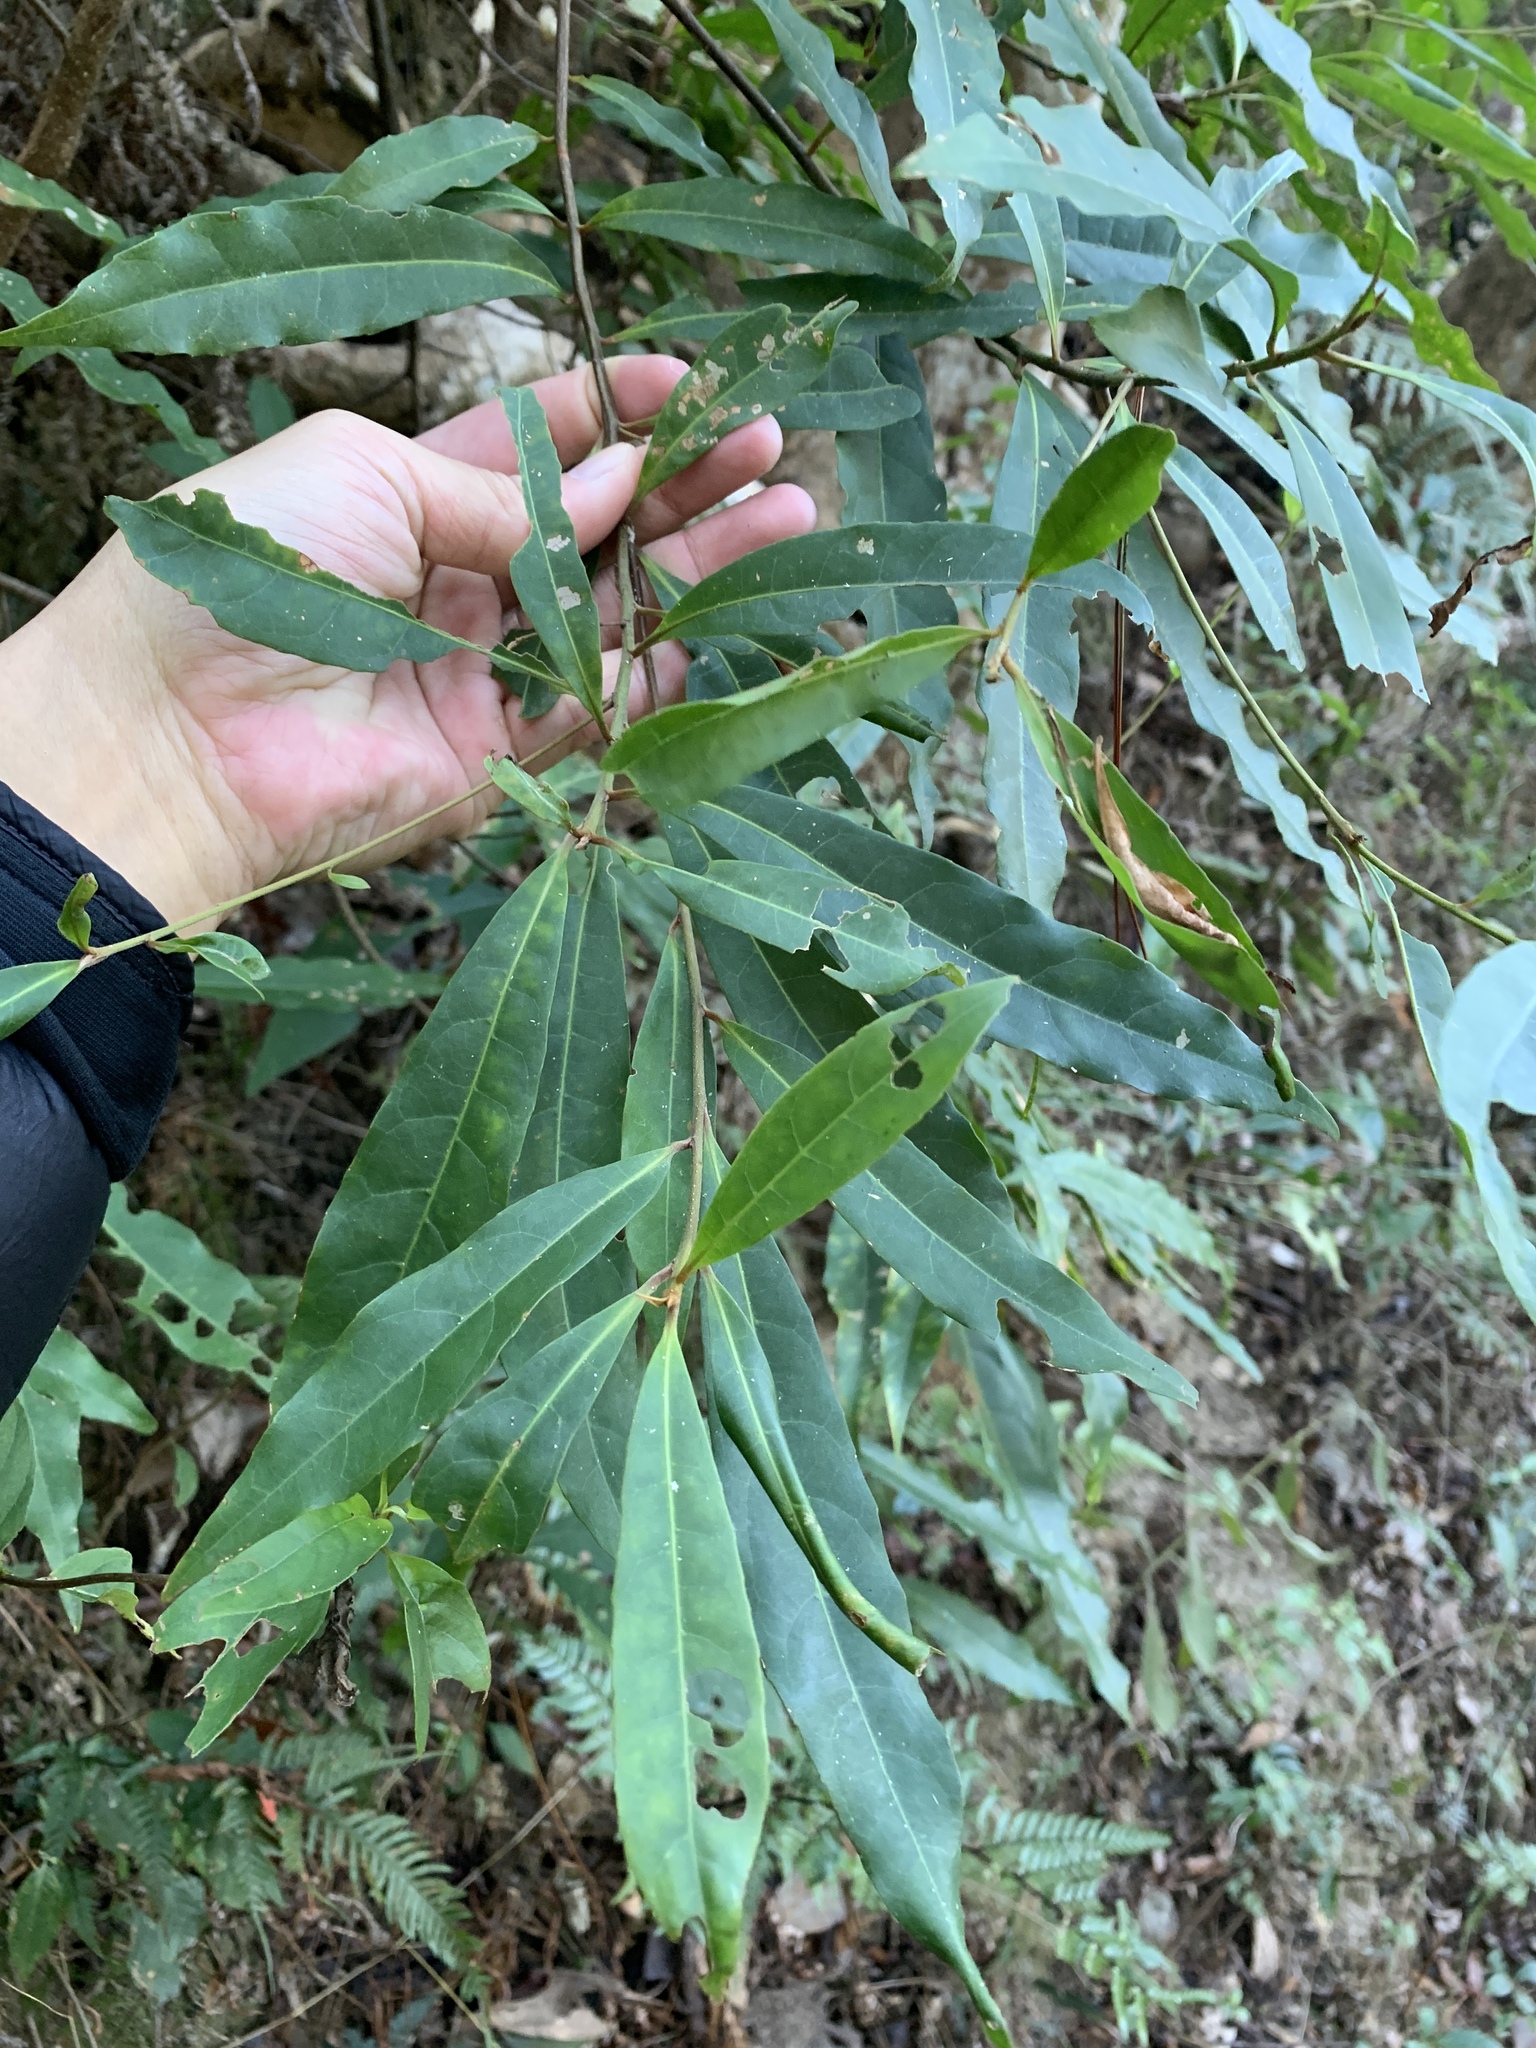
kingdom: Plantae
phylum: Tracheophyta
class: Magnoliopsida
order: Oxalidales
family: Elaeocarpaceae
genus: Elaeocarpus
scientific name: Elaeocarpus decipiens
